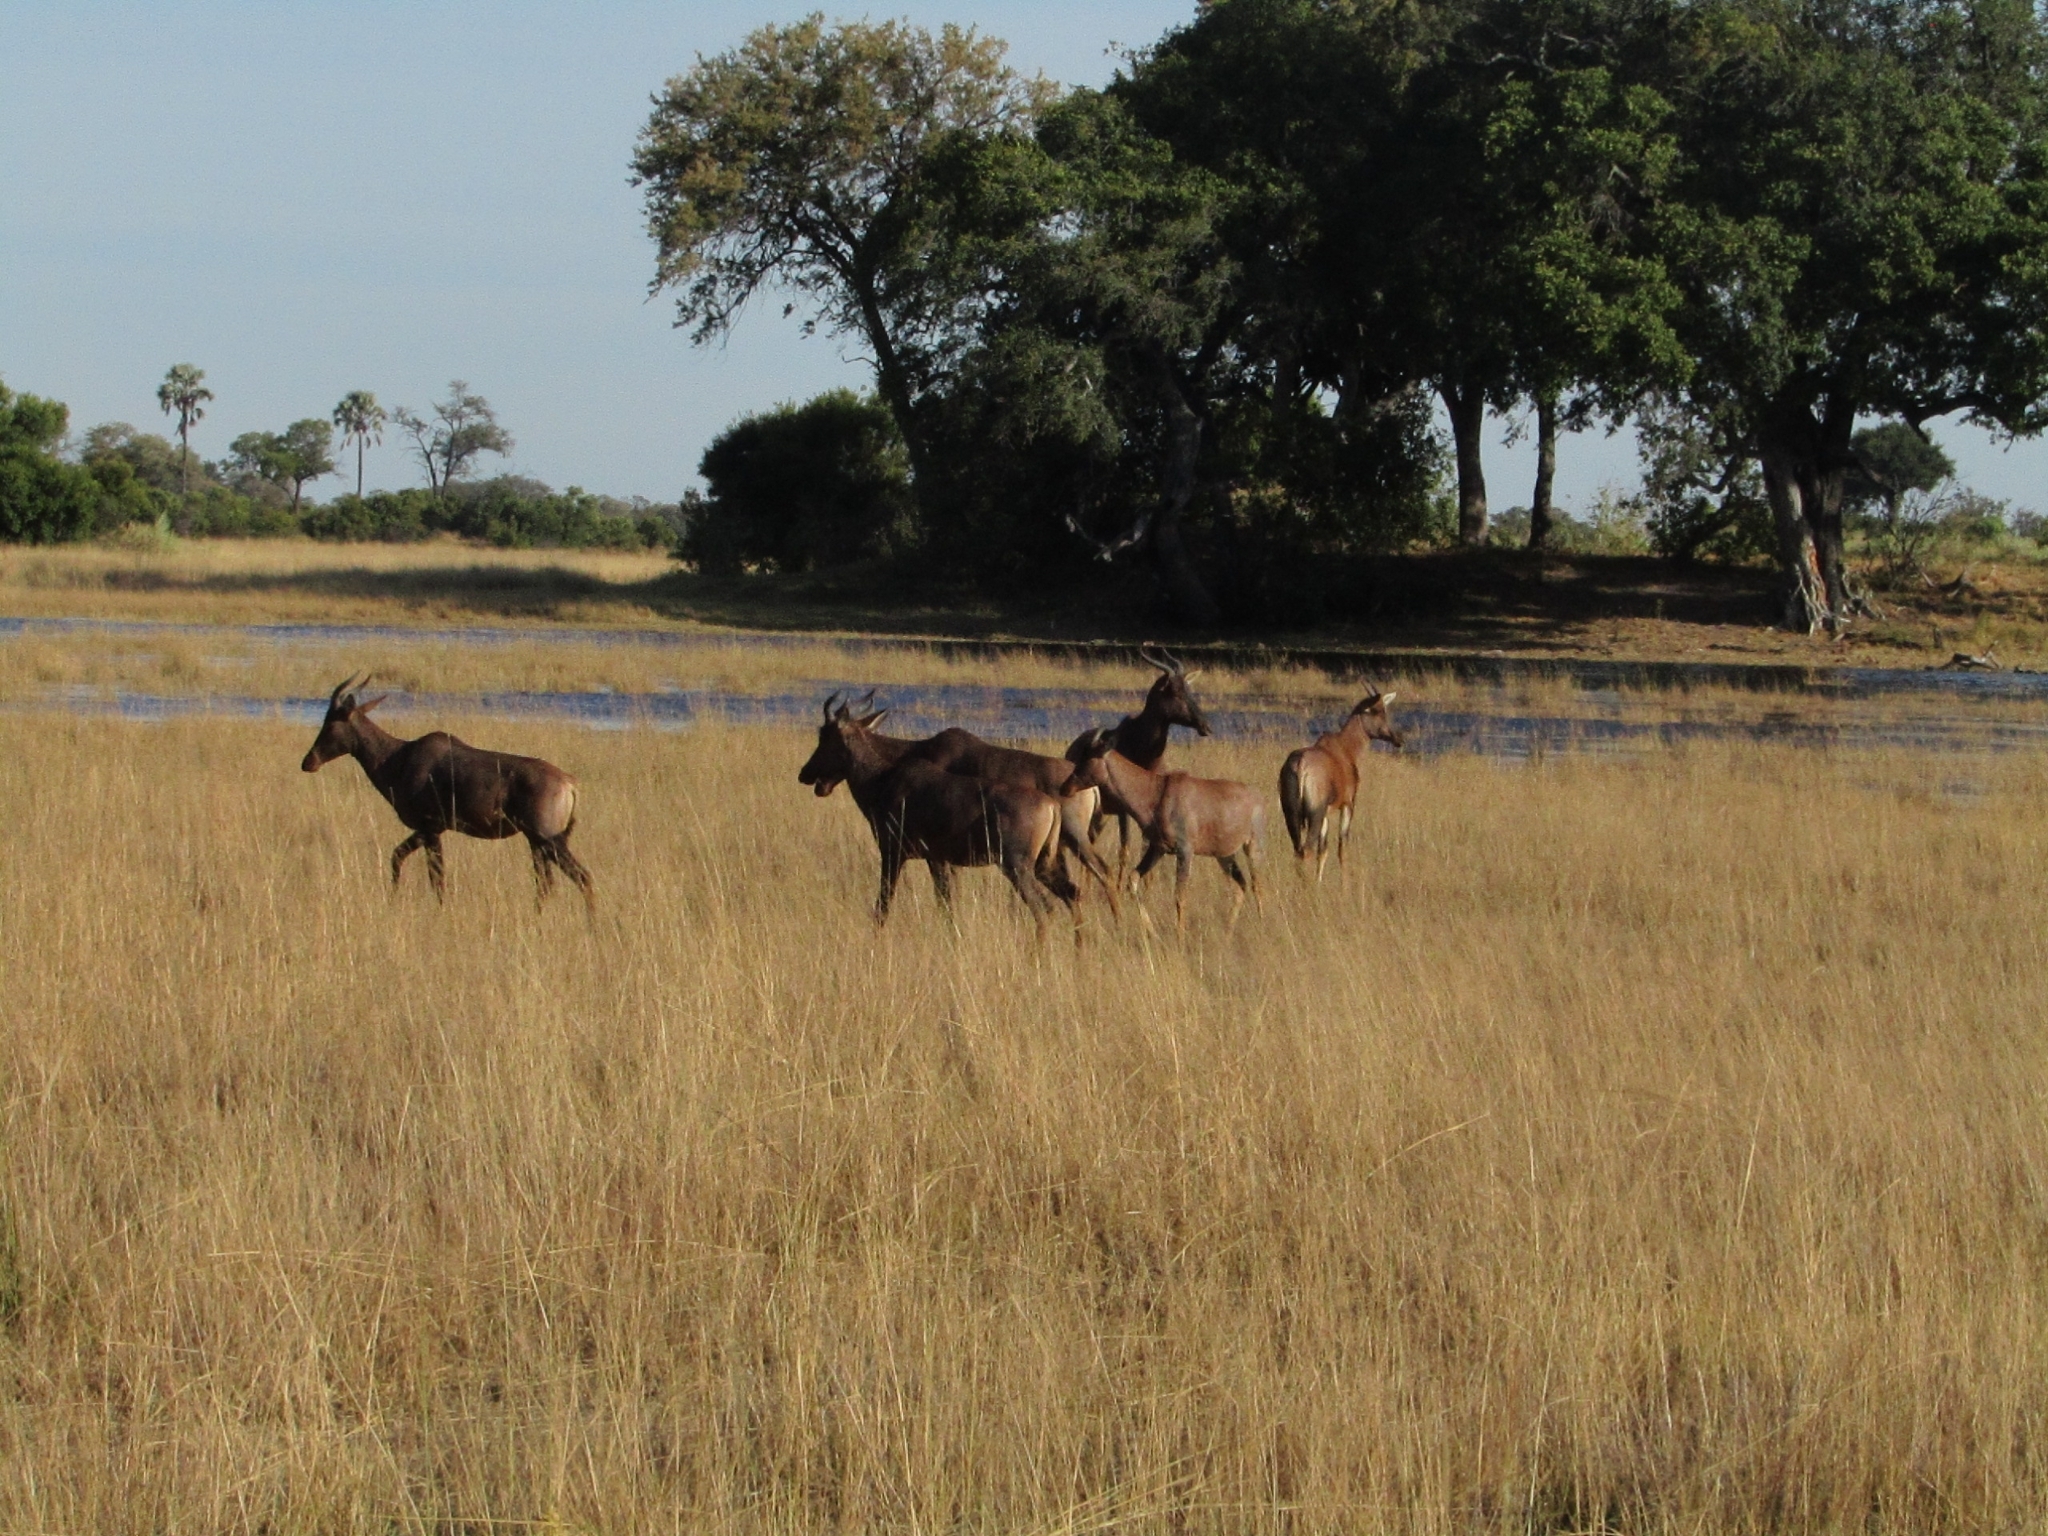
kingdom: Animalia
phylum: Chordata
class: Mammalia
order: Artiodactyla
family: Bovidae
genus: Damaliscus
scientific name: Damaliscus lunatus
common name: Common tsessebe
